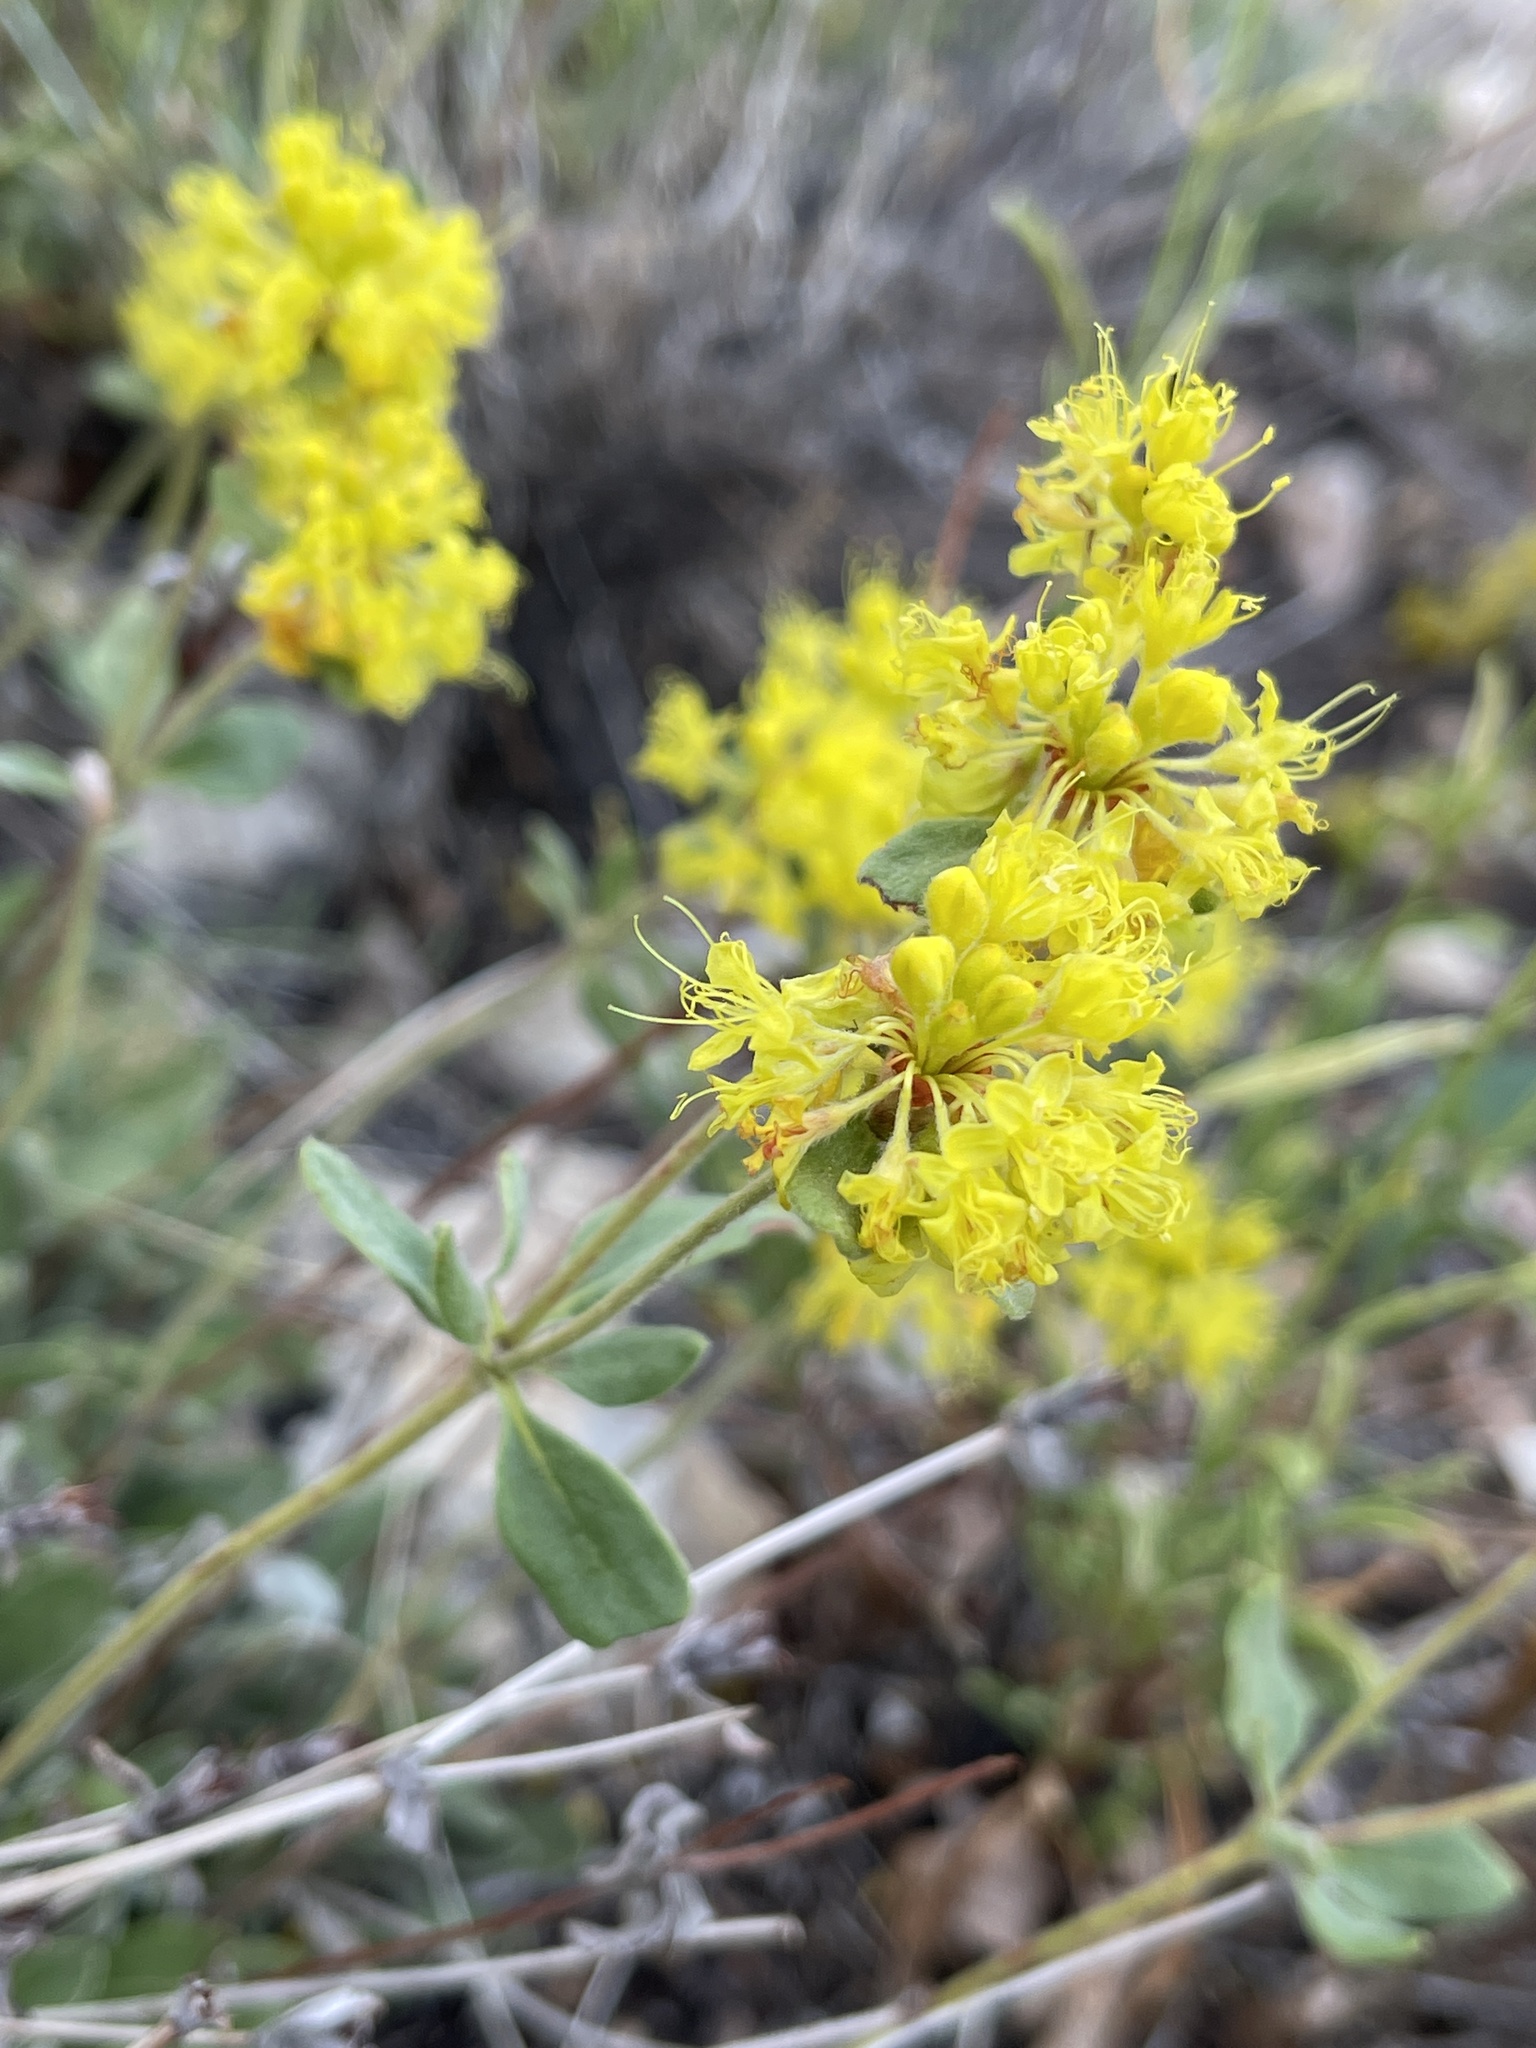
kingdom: Plantae
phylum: Tracheophyta
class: Magnoliopsida
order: Caryophyllales
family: Polygonaceae
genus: Eriogonum
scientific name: Eriogonum umbellatum
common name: Sulfur-buckwheat
